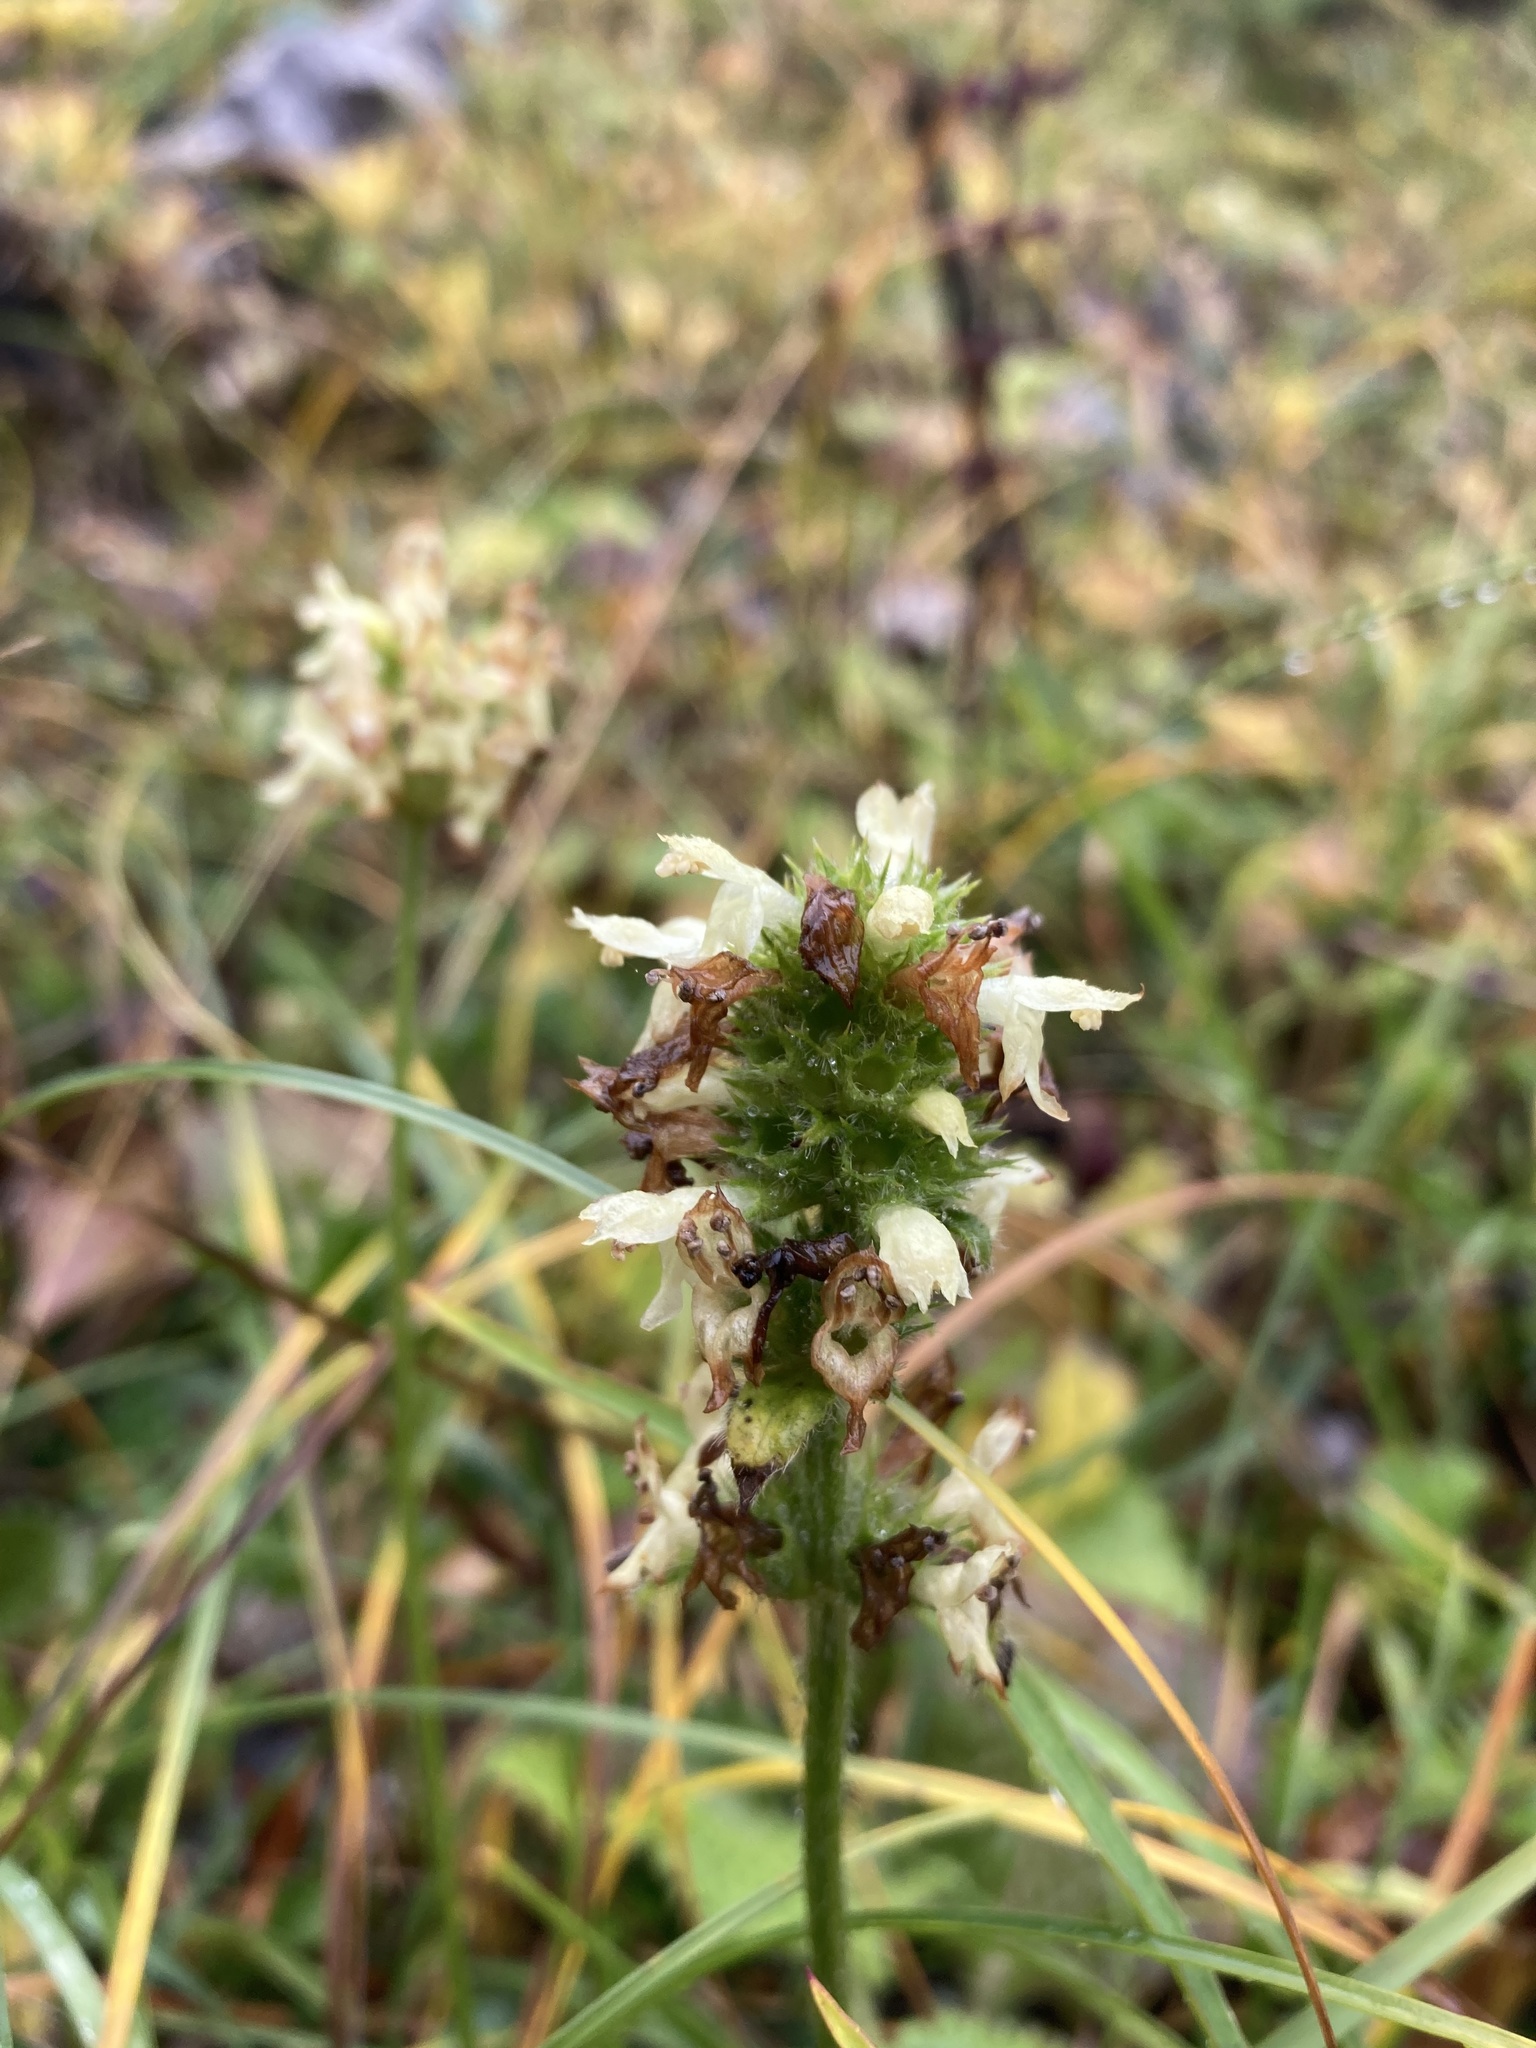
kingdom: Plantae
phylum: Tracheophyta
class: Magnoliopsida
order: Lamiales
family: Lamiaceae
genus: Betonica
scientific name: Betonica alopecuros
